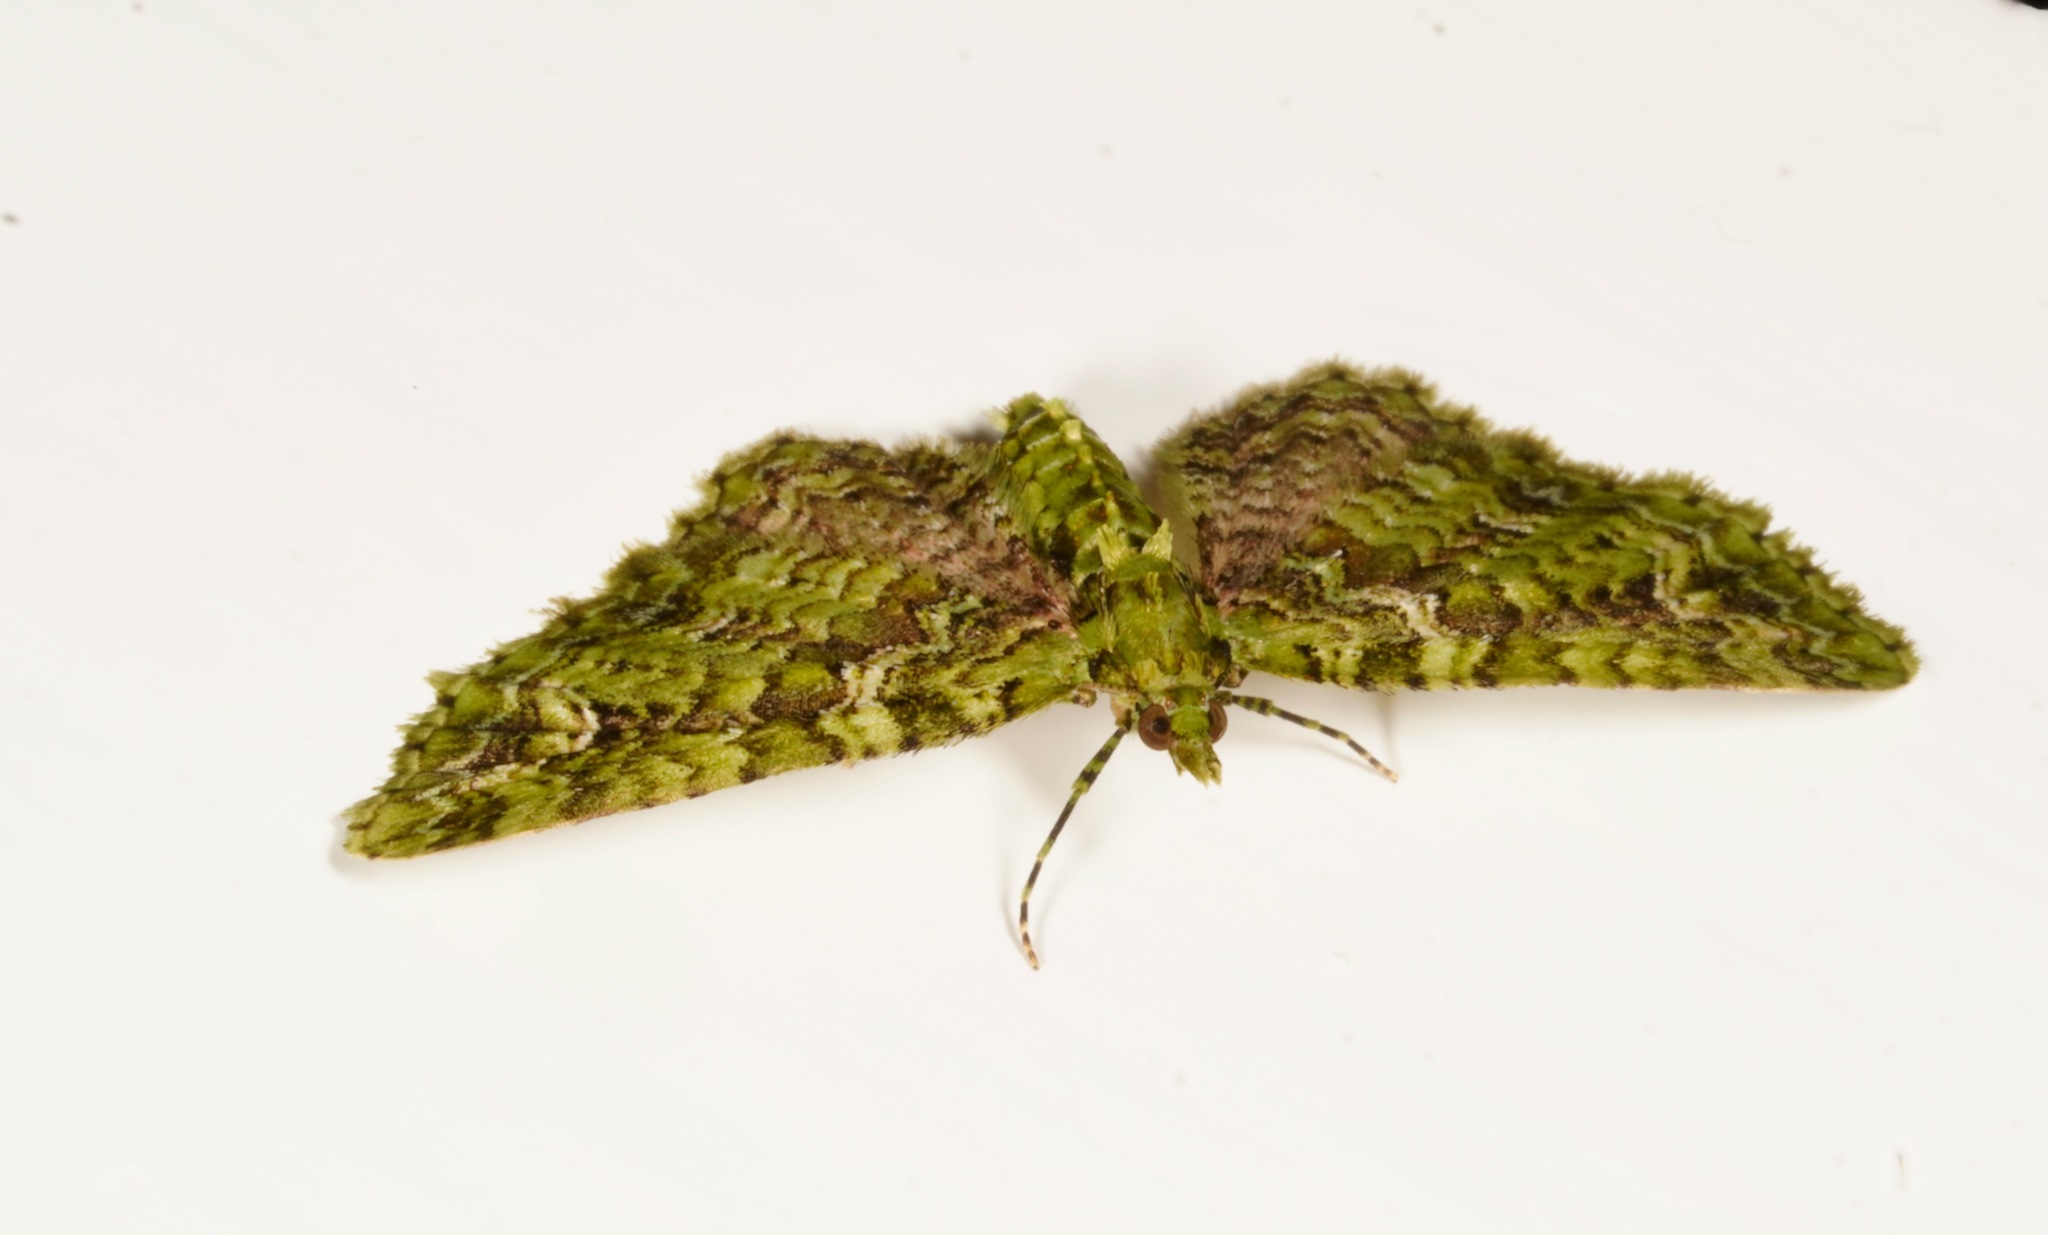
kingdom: Animalia
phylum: Arthropoda
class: Insecta
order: Lepidoptera
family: Geometridae
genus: Pasiphila
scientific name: Pasiphila muscosata
